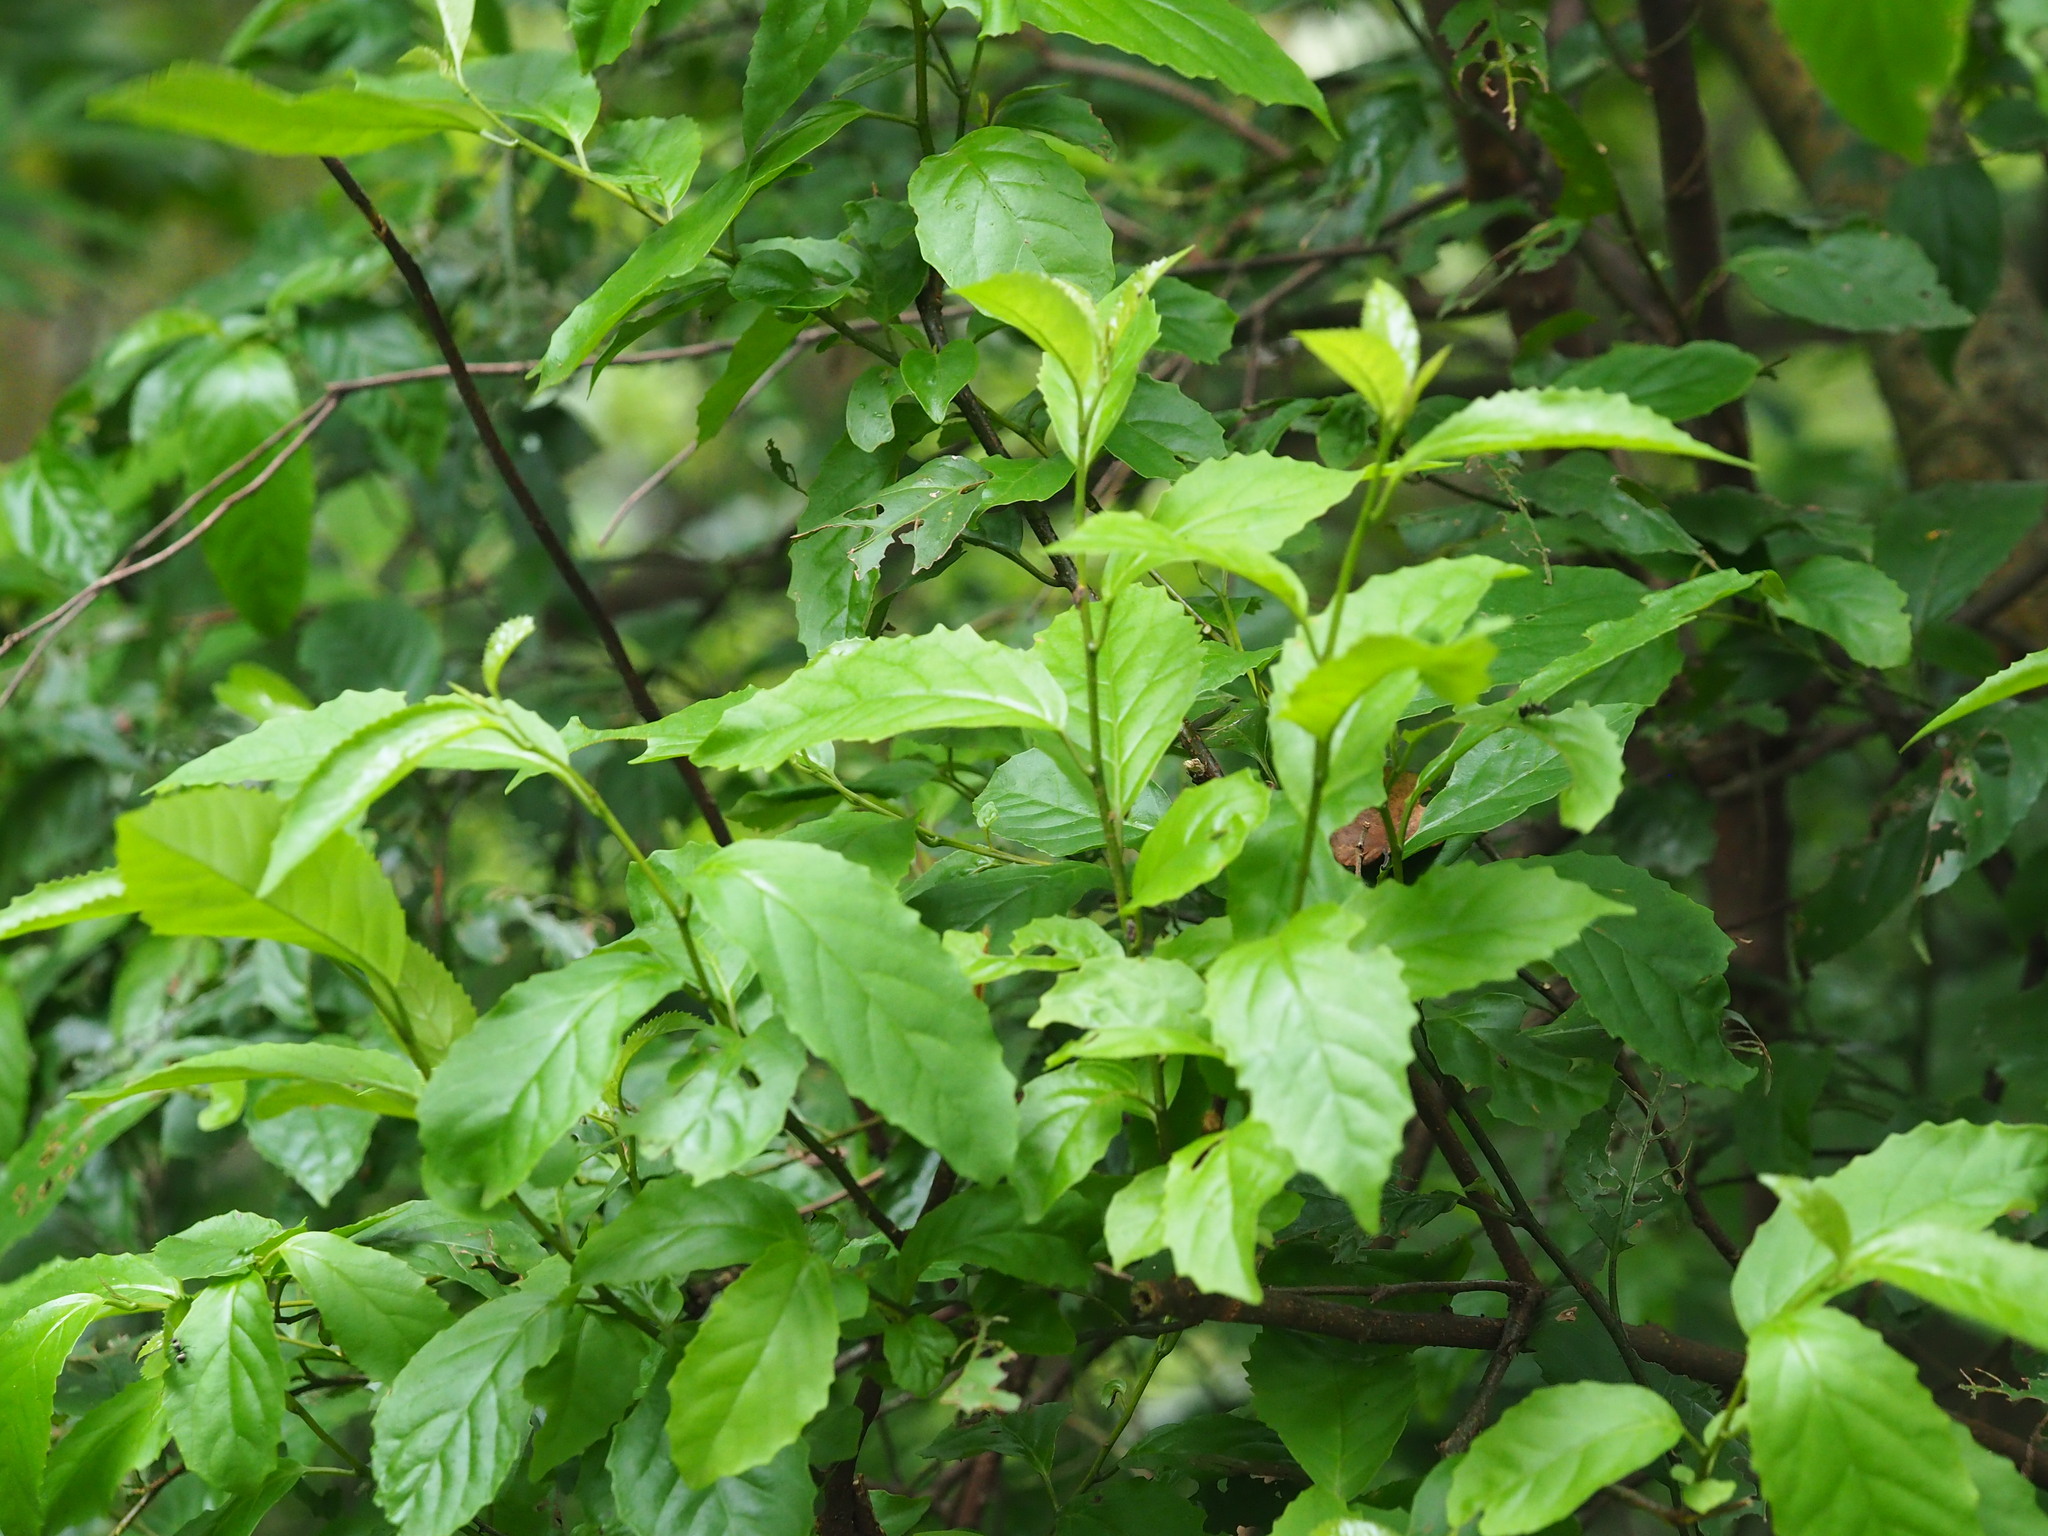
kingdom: Plantae
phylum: Tracheophyta
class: Magnoliopsida
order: Ericales
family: Primulaceae
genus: Maesa
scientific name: Maesa perlaria
